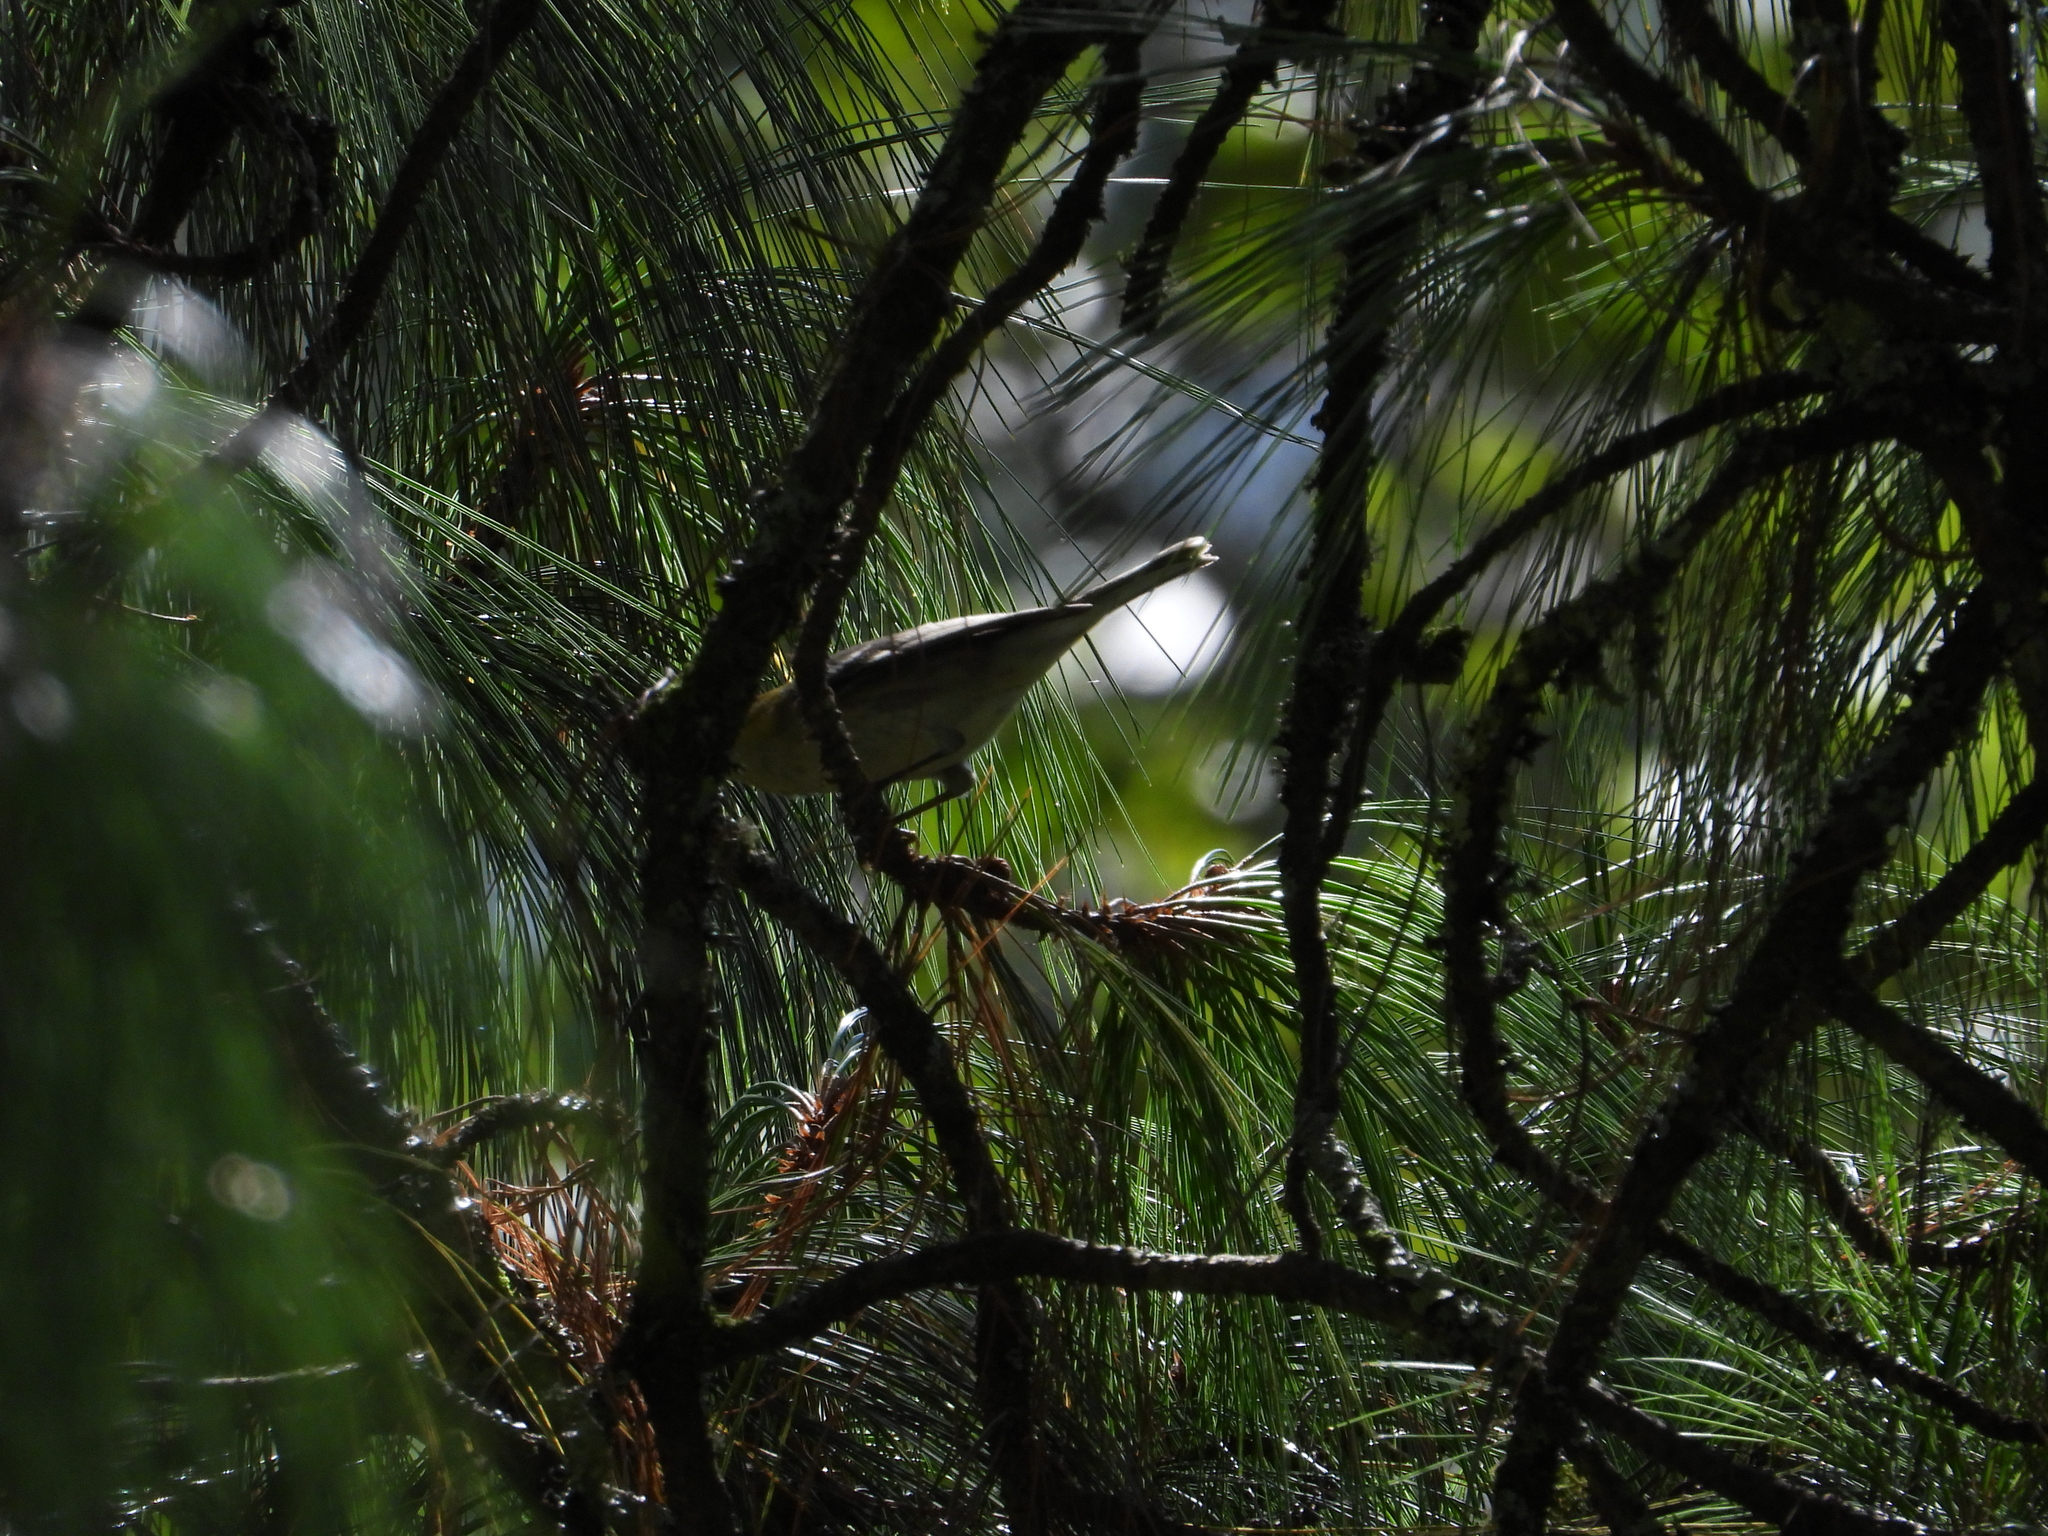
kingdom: Animalia
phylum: Chordata
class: Aves
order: Passeriformes
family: Parulidae
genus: Setophaga
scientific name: Setophaga occidentalis
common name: Hermit warbler
